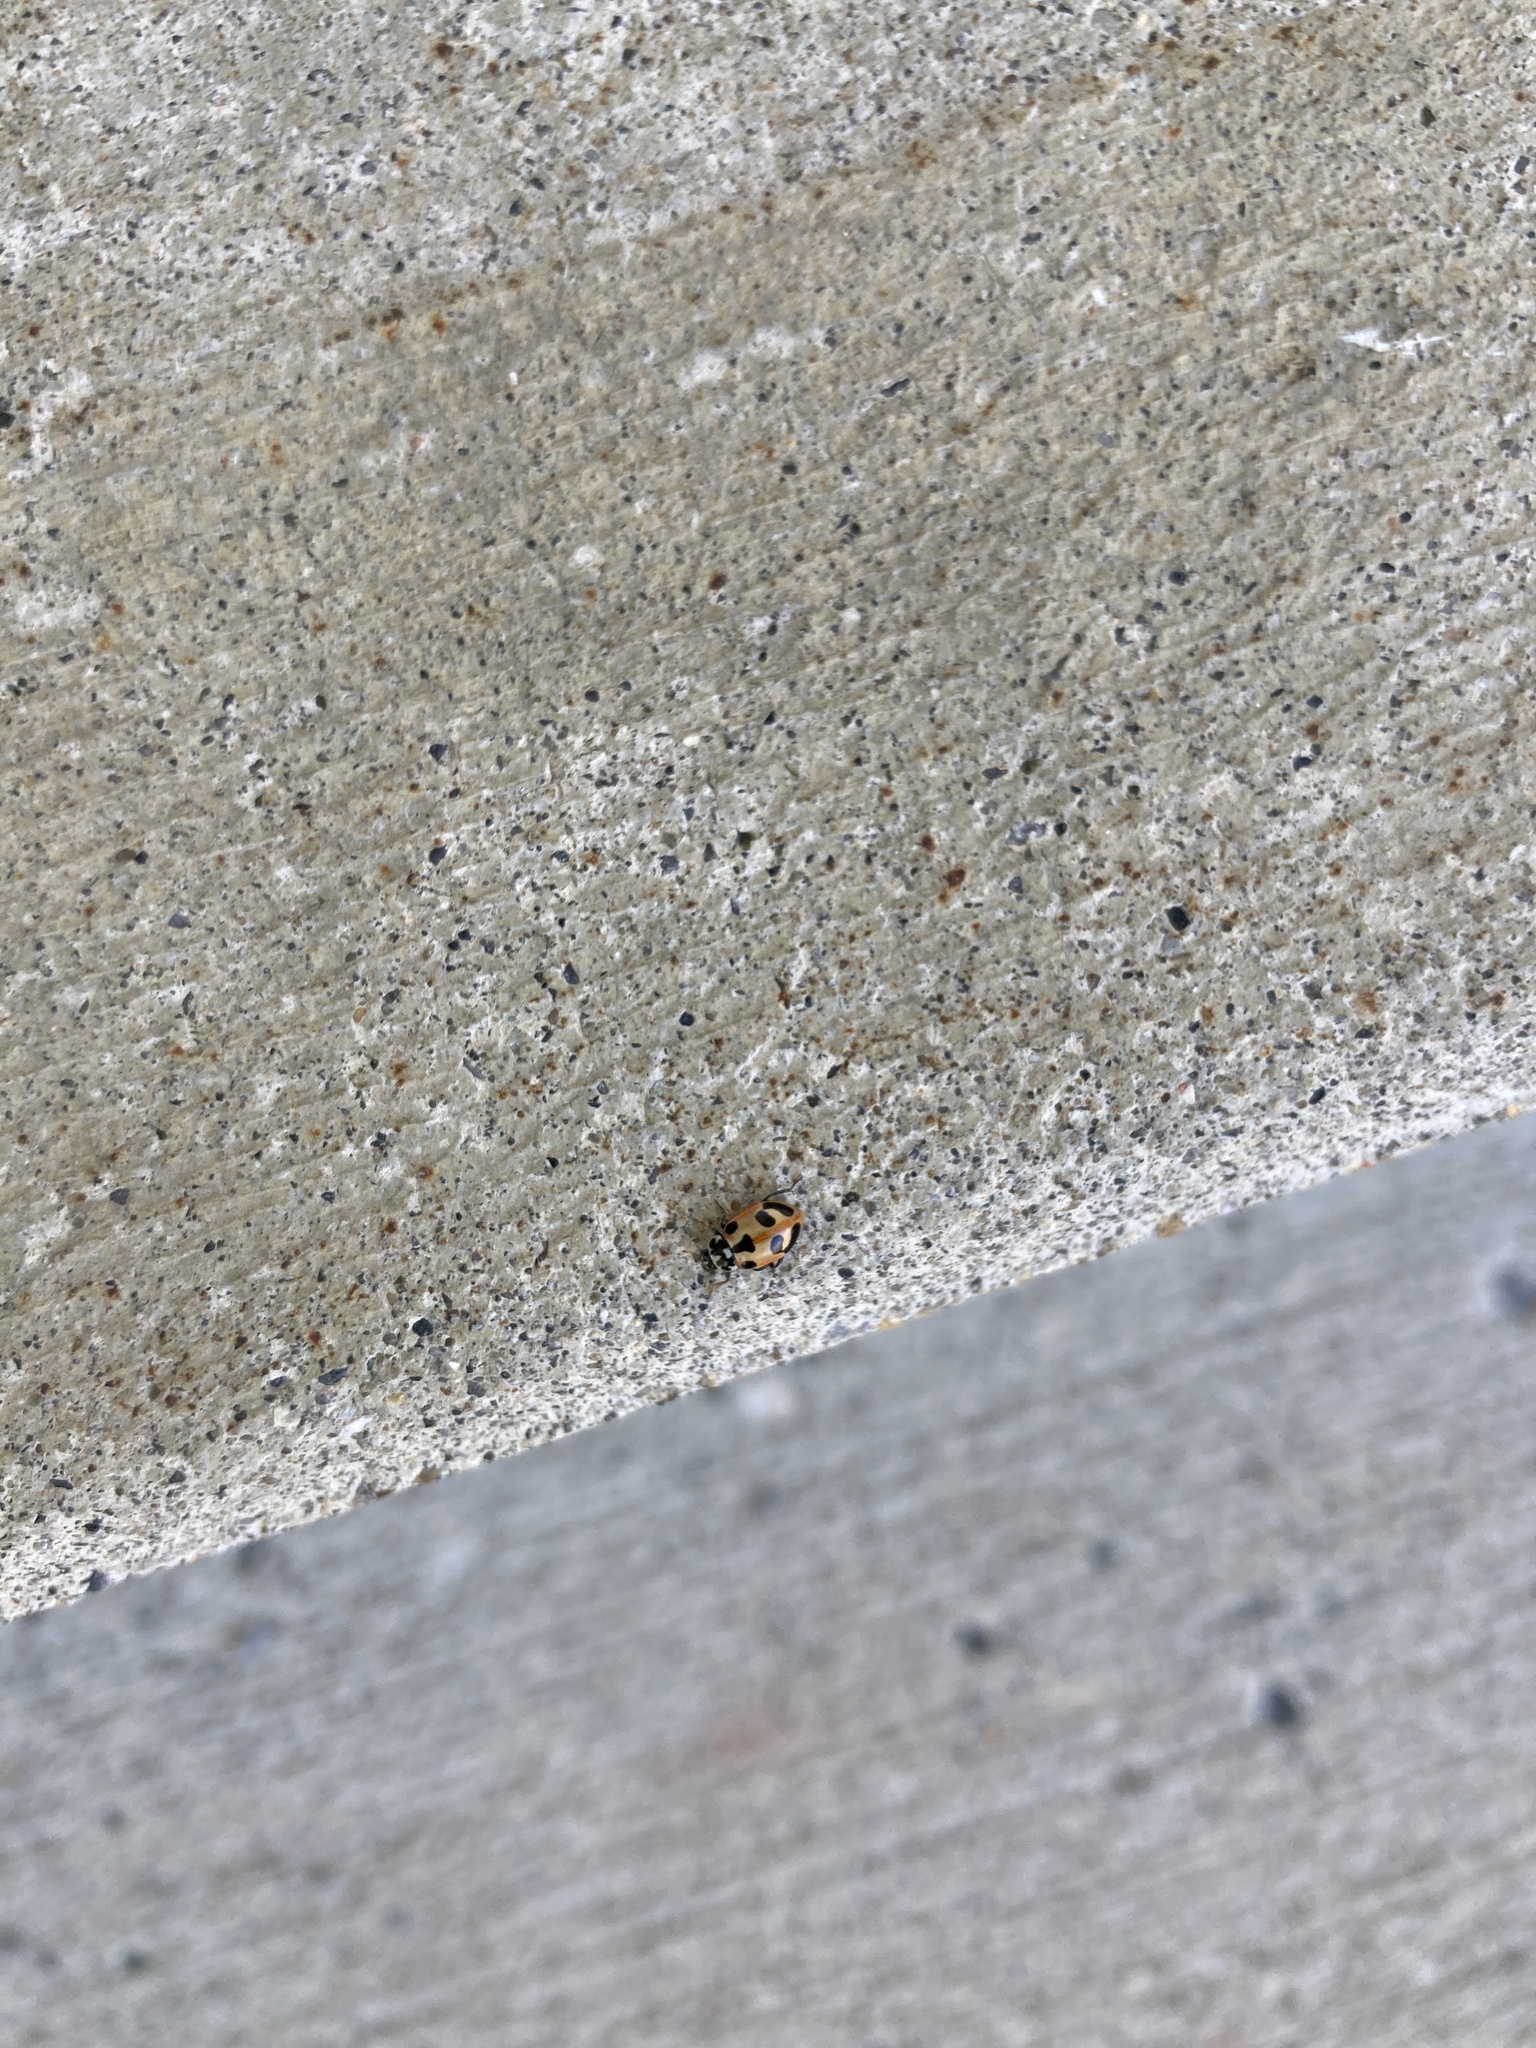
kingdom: Animalia
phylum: Arthropoda
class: Insecta
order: Coleoptera
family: Coccinellidae
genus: Hippodamia
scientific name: Hippodamia parenthesis
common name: Parenthesis lady beetle
